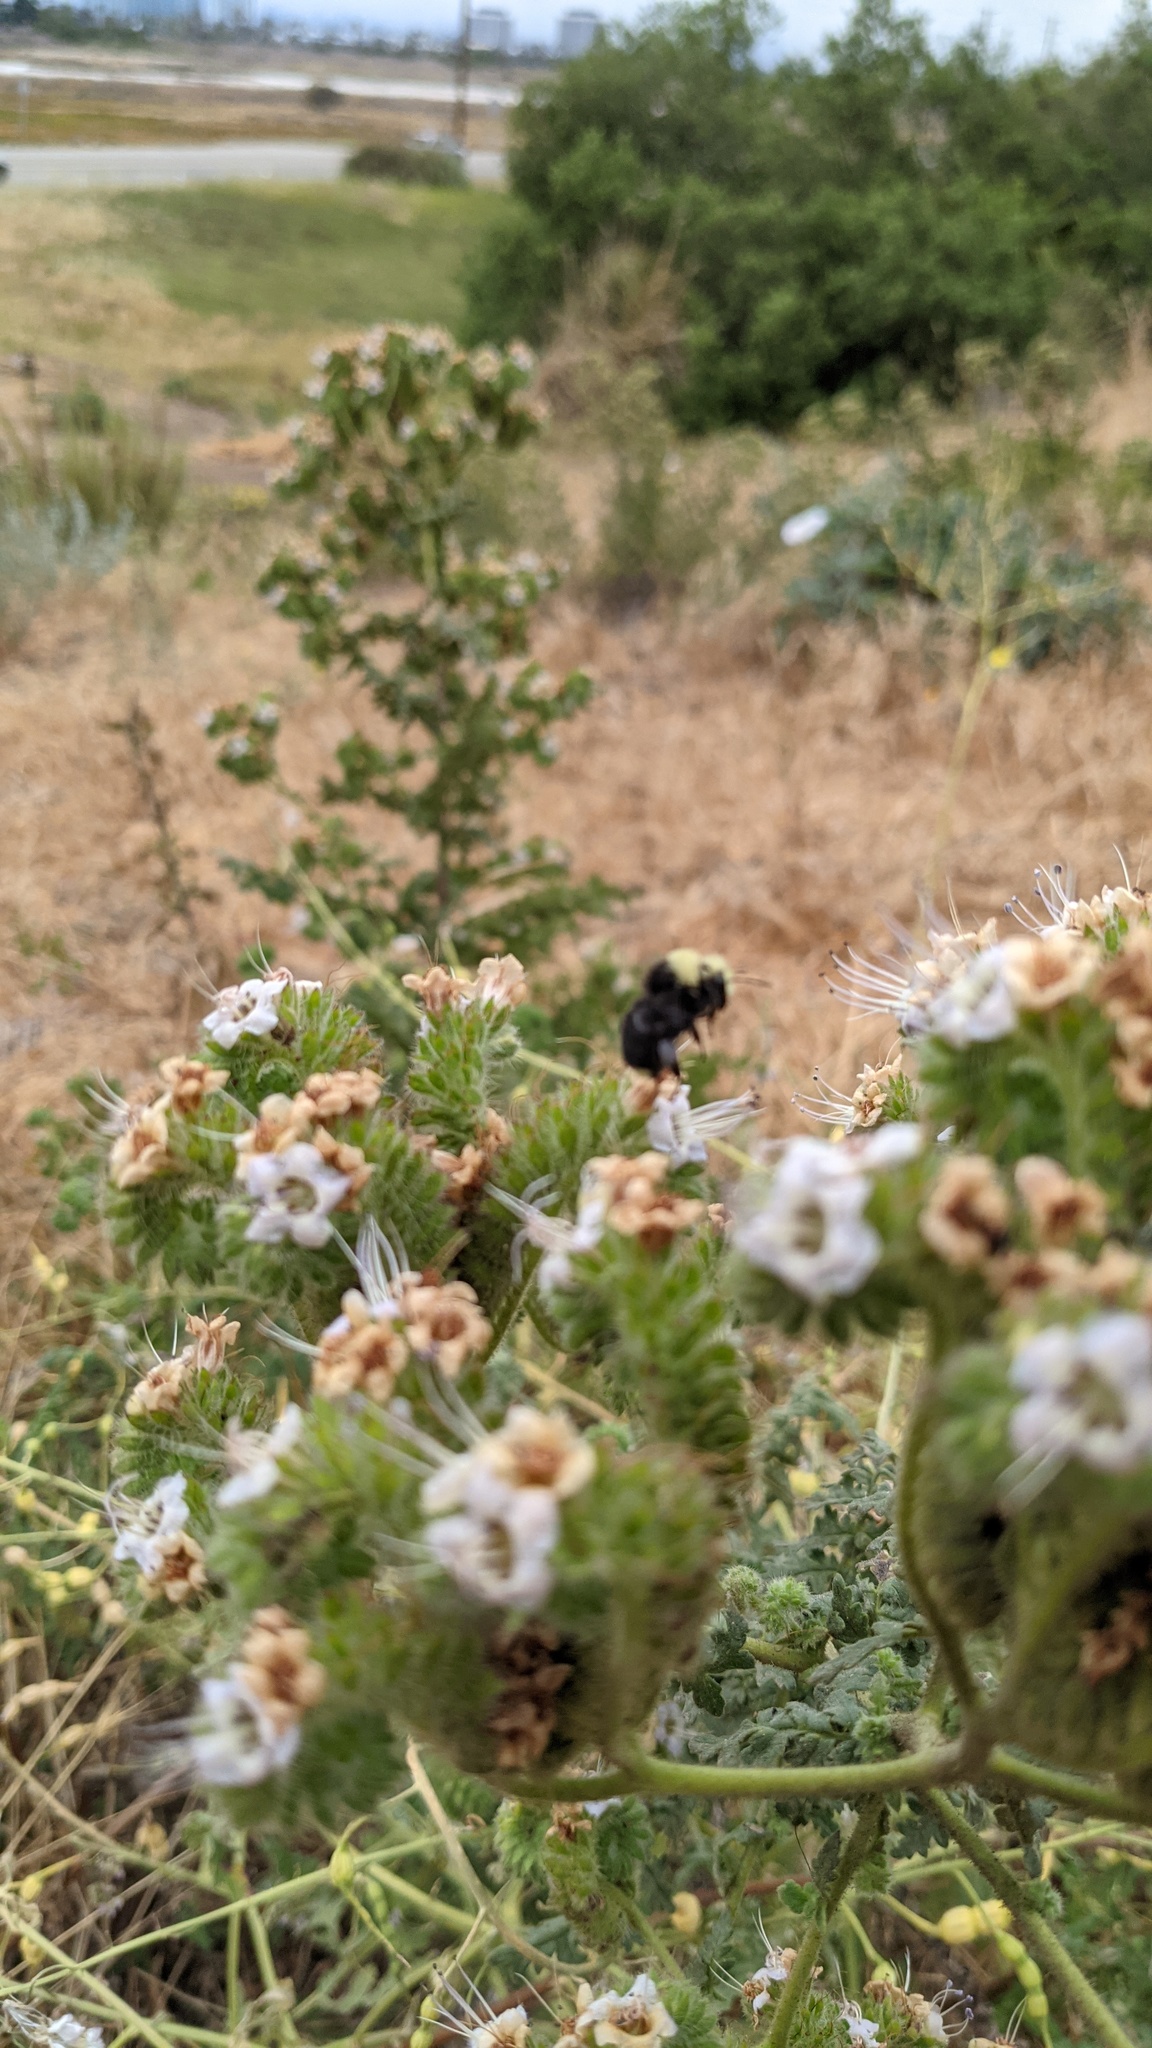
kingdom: Animalia
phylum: Arthropoda
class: Insecta
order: Hymenoptera
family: Apidae
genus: Bombus
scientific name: Bombus vosnesenskii
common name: Vosnesensky bumble bee
